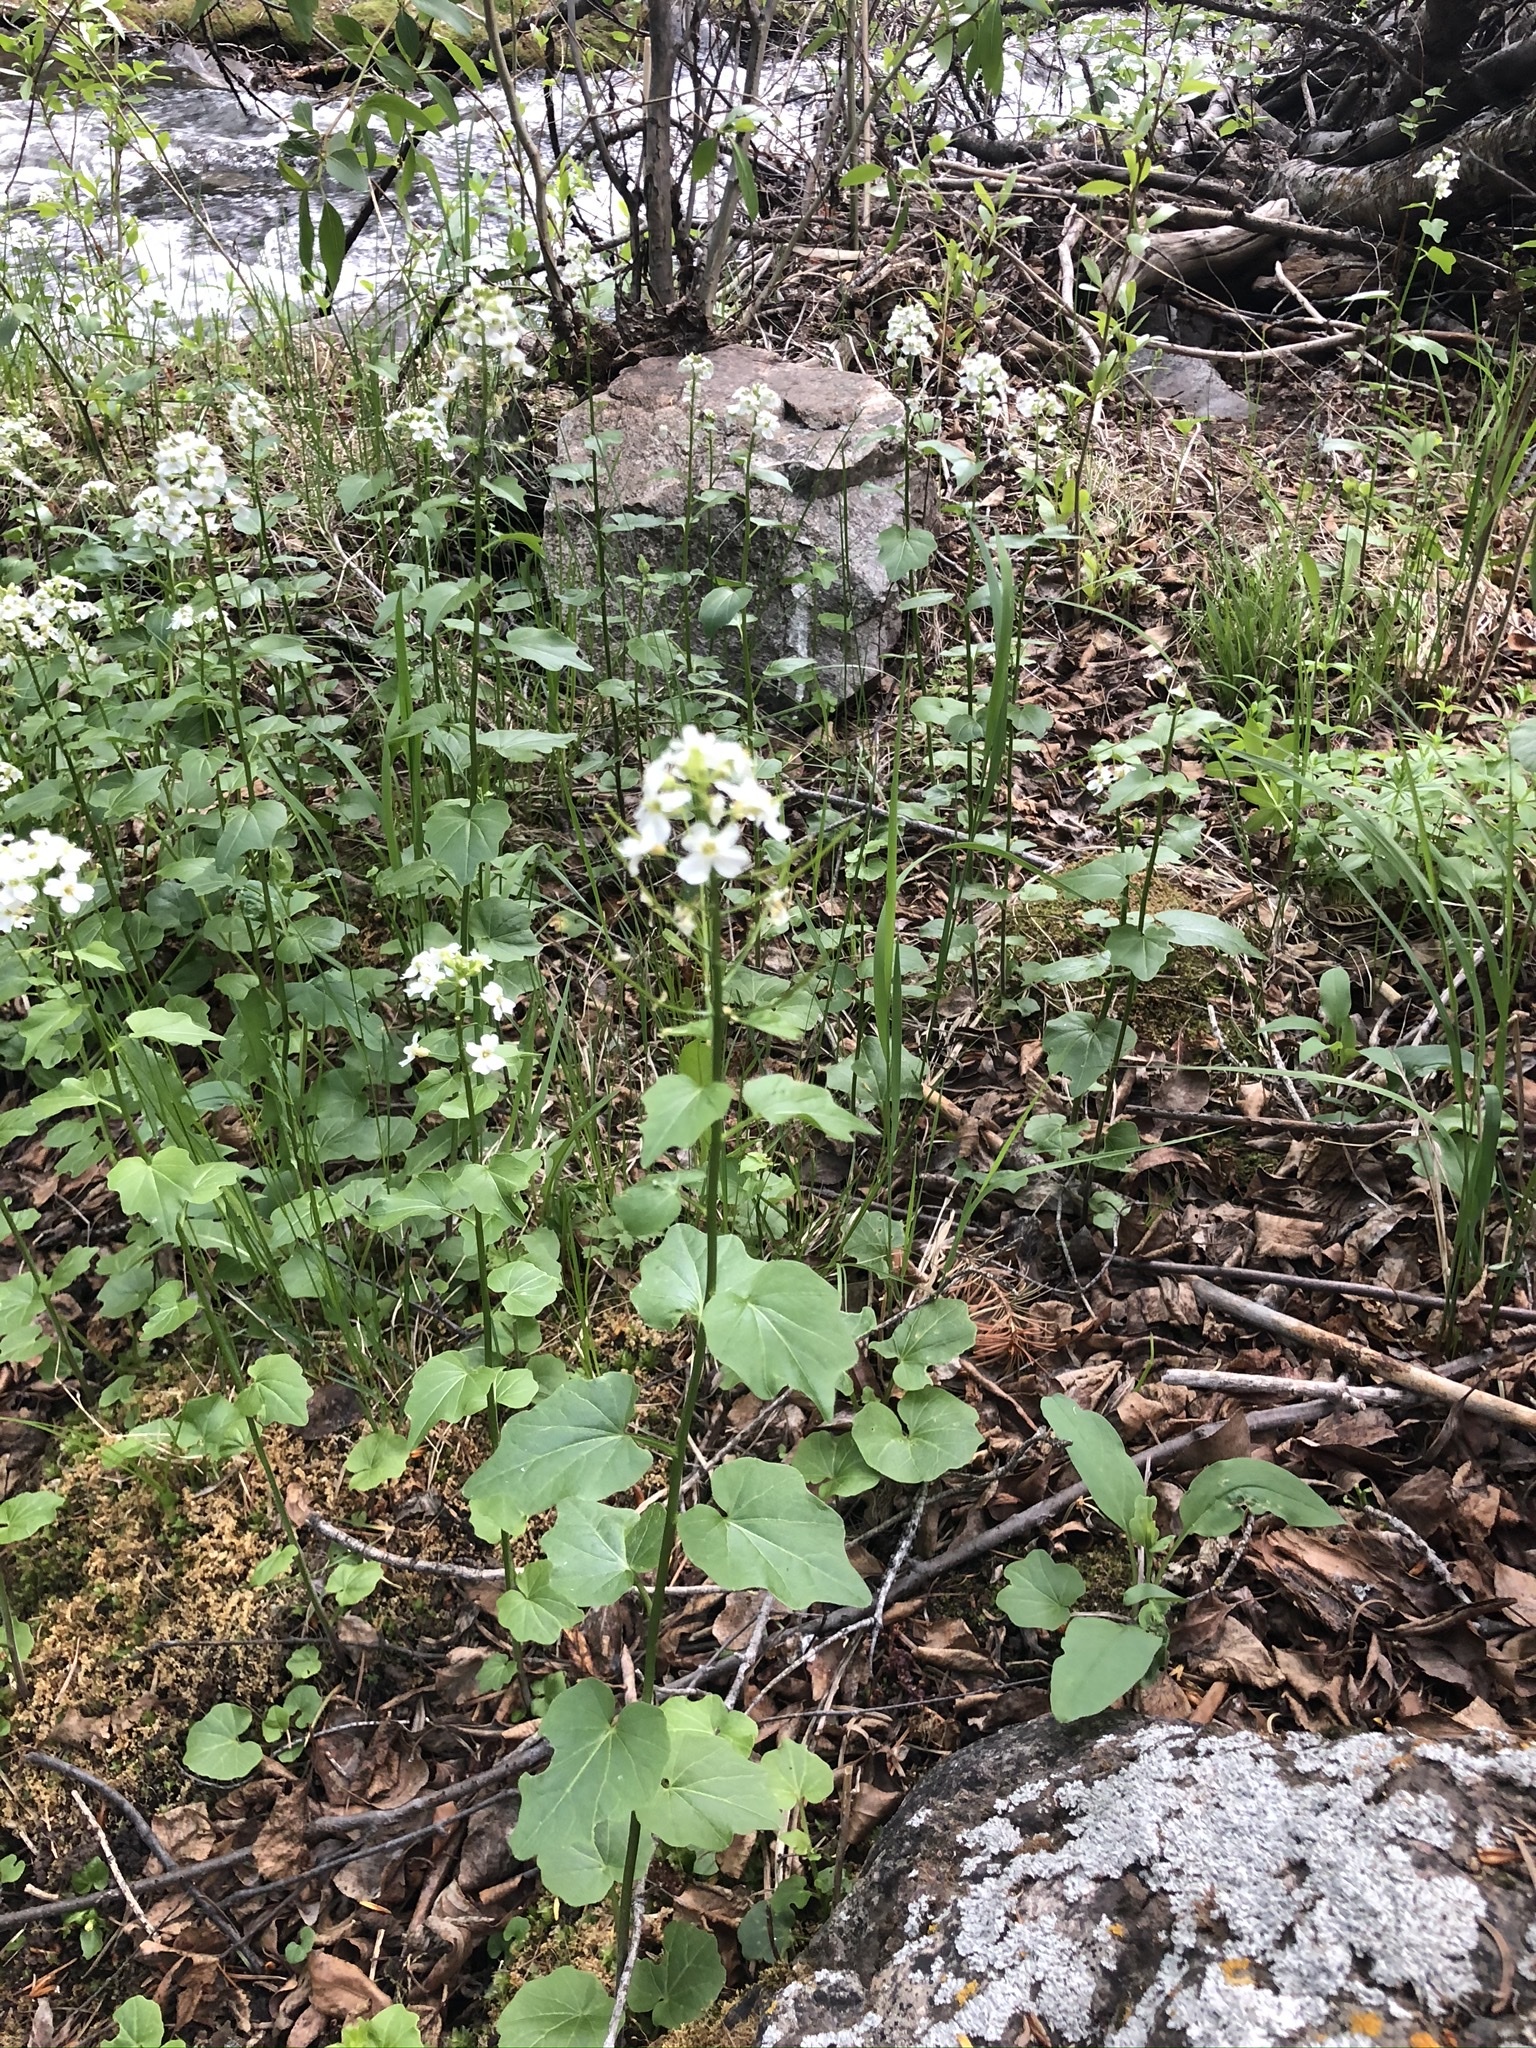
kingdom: Plantae
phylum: Tracheophyta
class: Magnoliopsida
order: Brassicales
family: Brassicaceae
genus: Cardamine
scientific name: Cardamine cordifolia
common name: Heart-leaf bittercress
